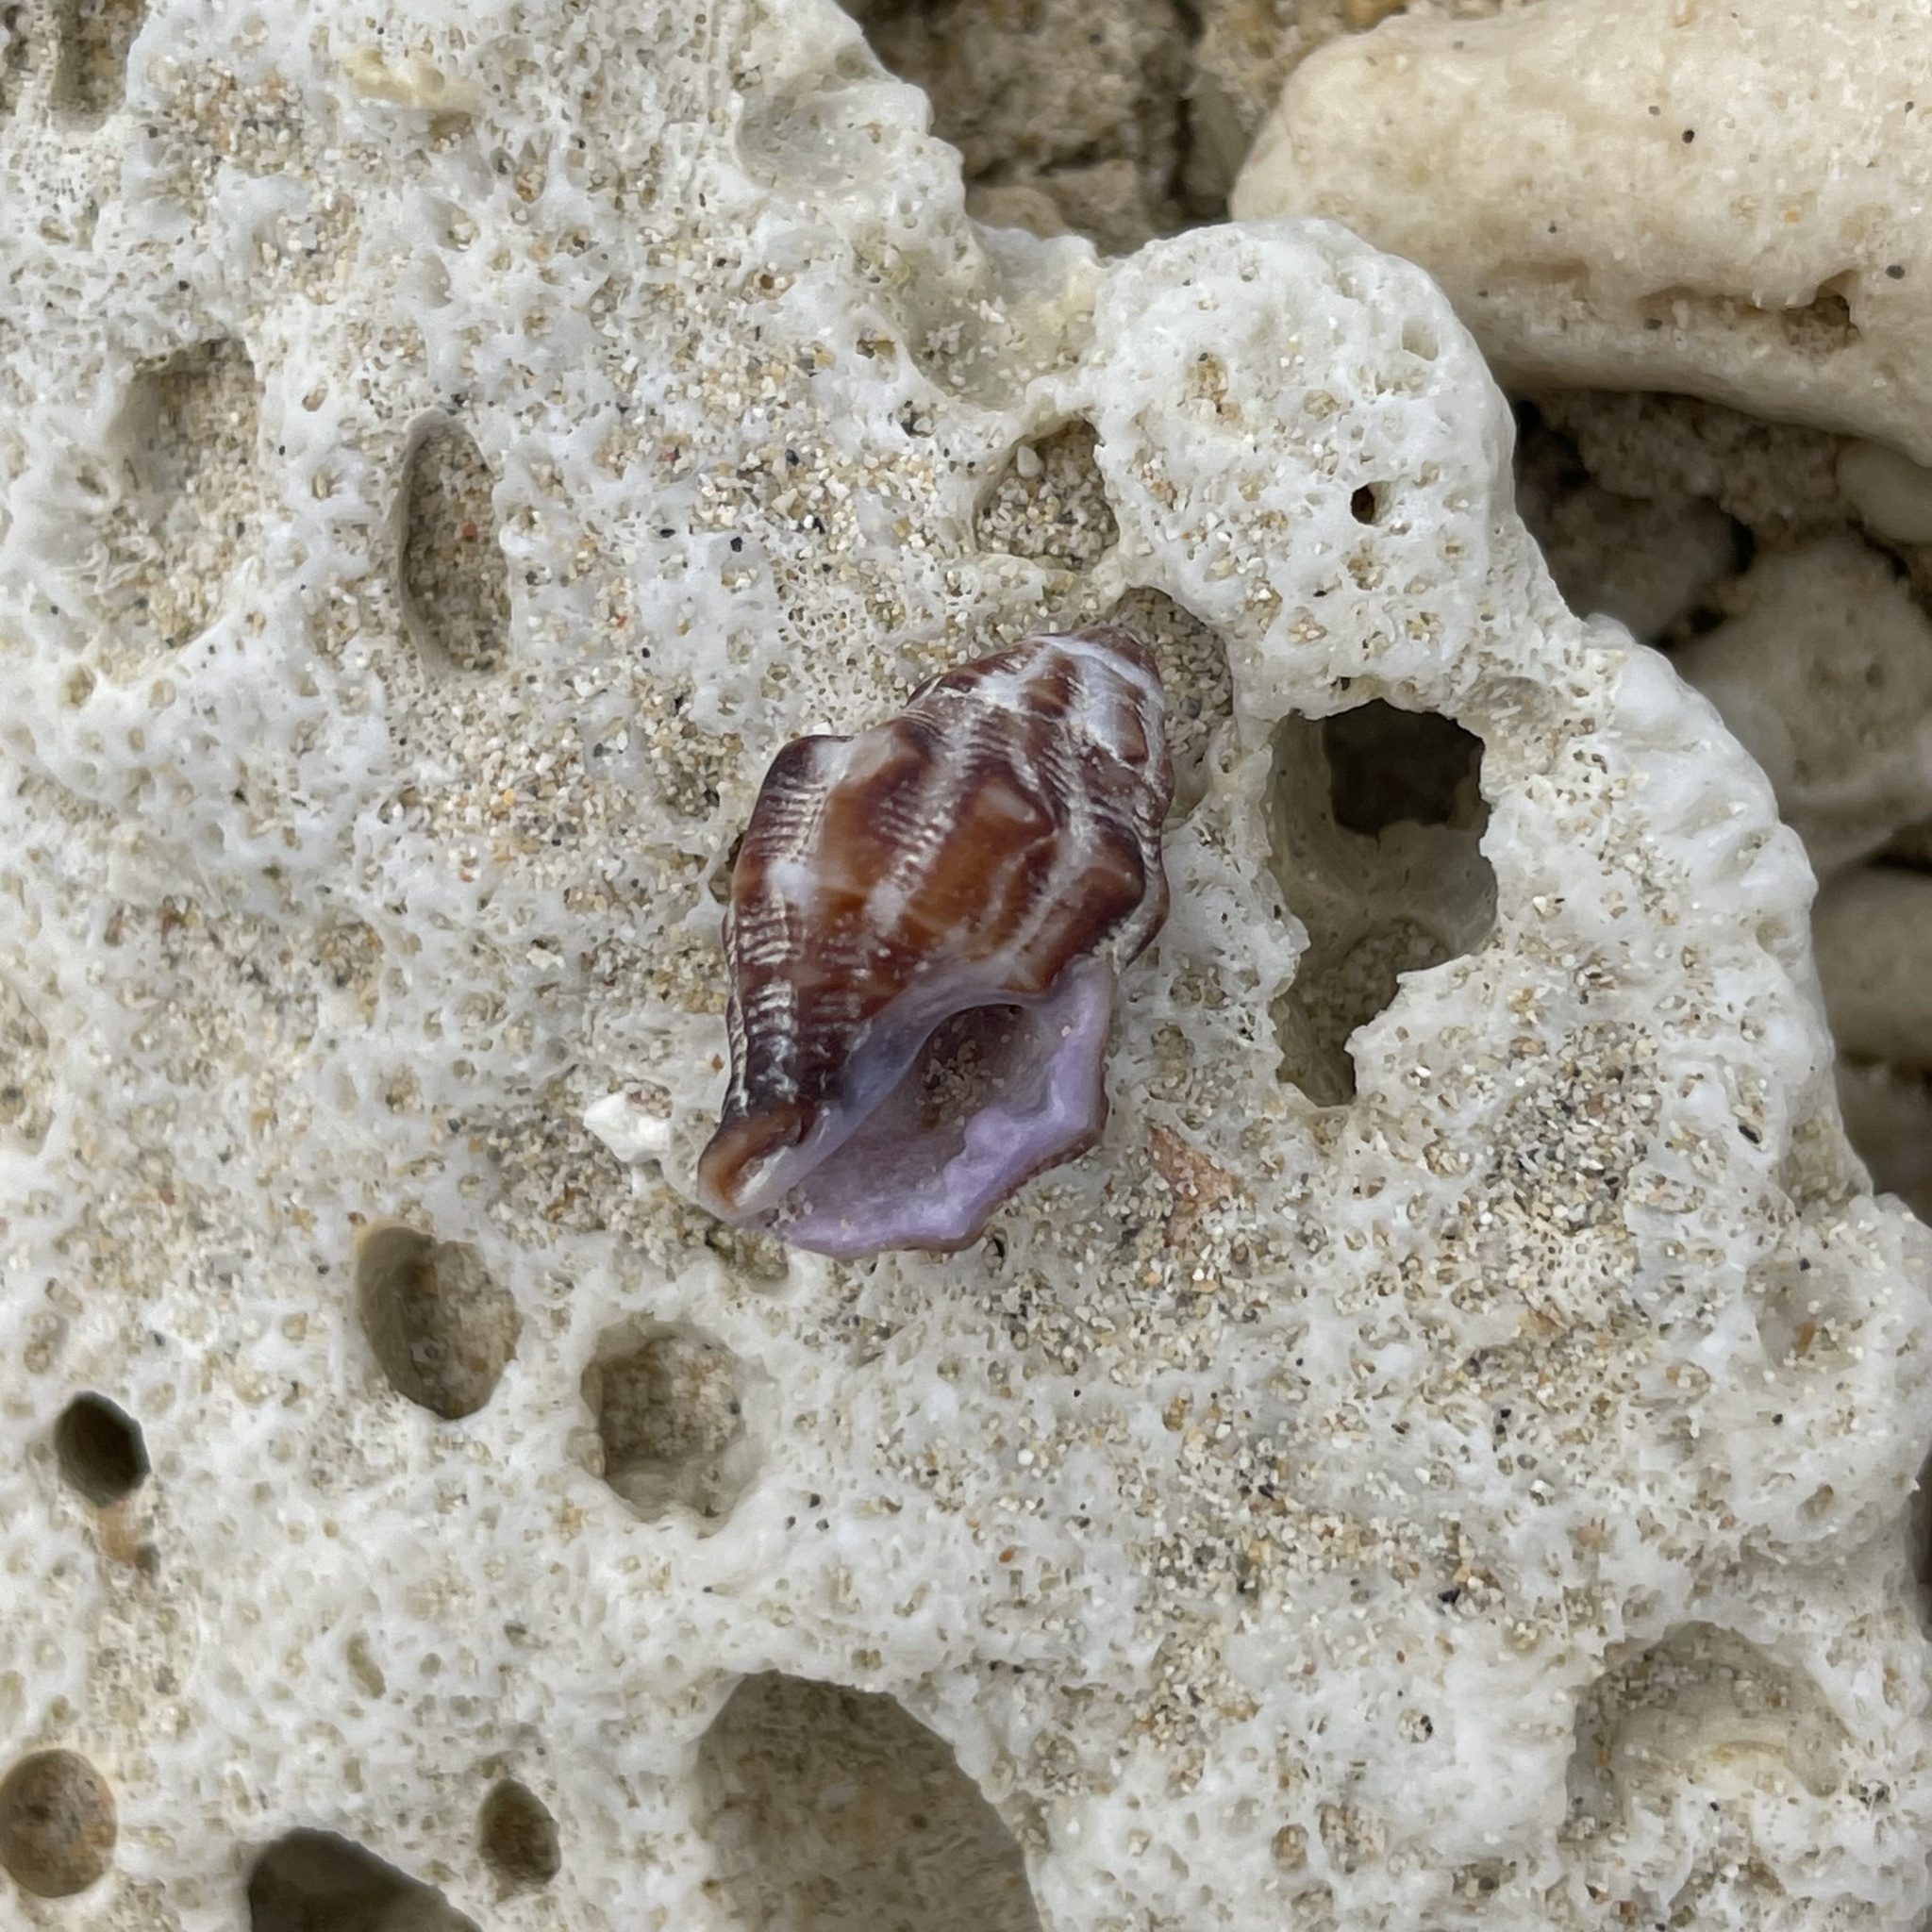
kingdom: Animalia
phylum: Mollusca
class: Gastropoda
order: Neogastropoda
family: Muricidae
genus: Morula
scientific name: Morula spinosa
